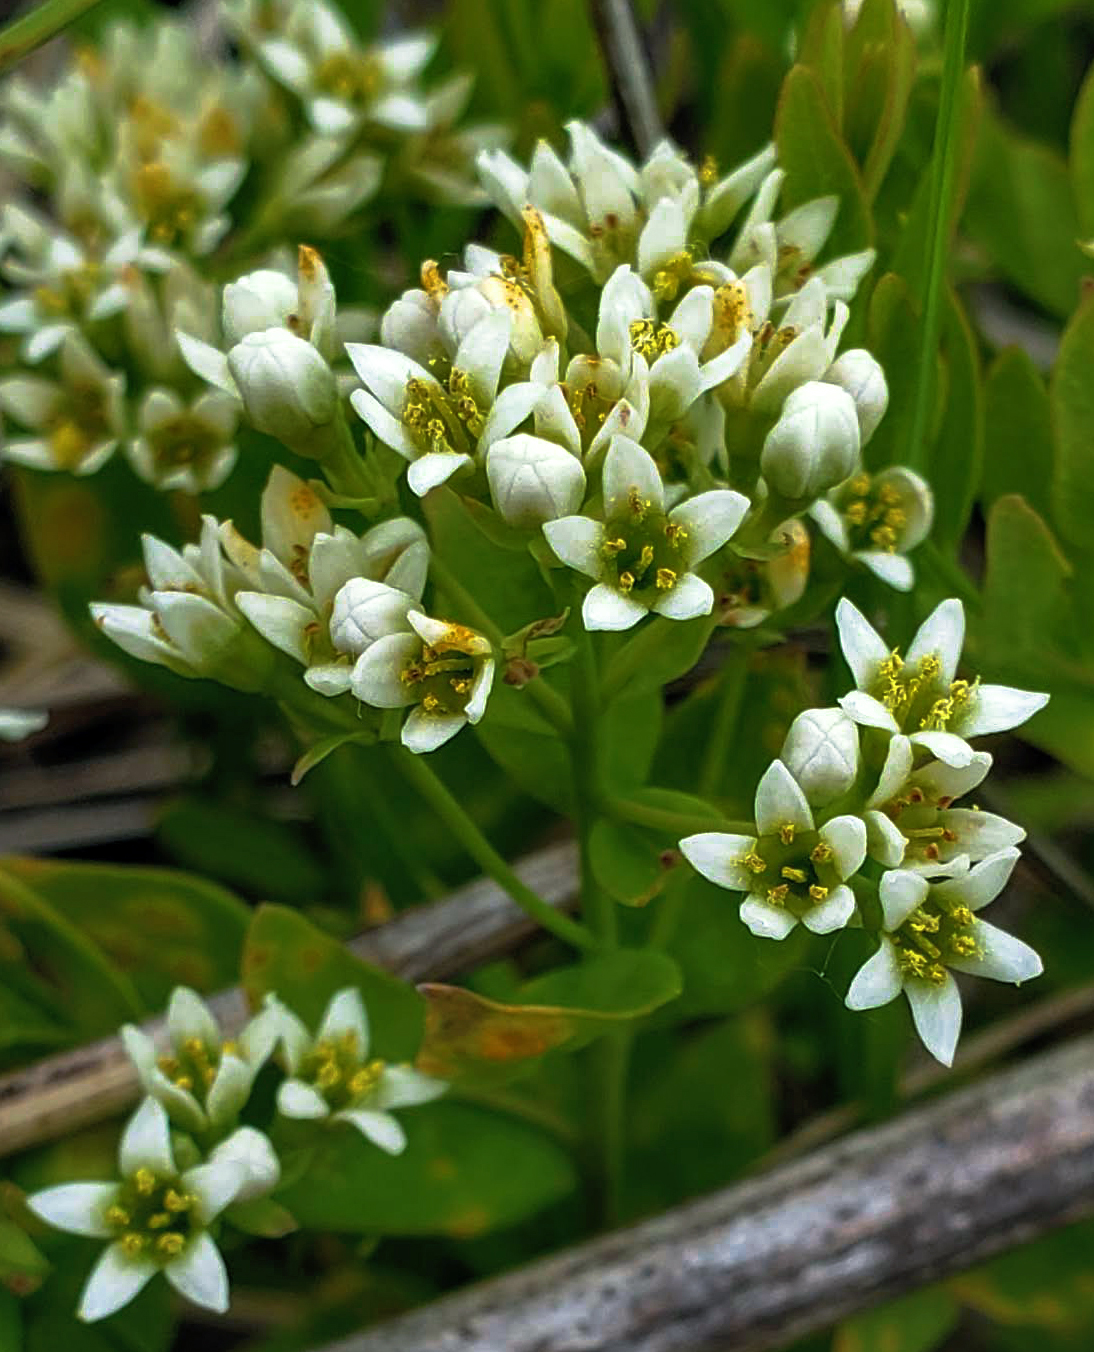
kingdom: Plantae
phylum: Tracheophyta
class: Magnoliopsida
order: Santalales
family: Comandraceae
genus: Comandra
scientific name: Comandra umbellata
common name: Bastard toadflax
